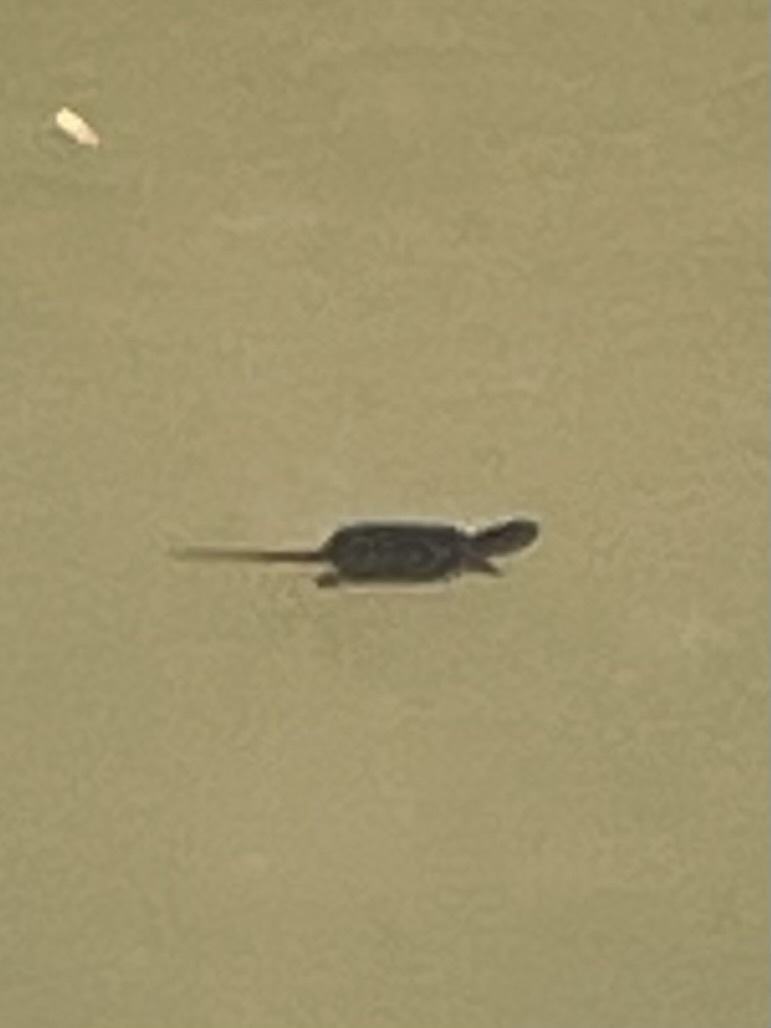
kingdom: Animalia
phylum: Chordata
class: Testudines
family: Chelydridae
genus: Chelydra
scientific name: Chelydra serpentina
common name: Common snapping turtle
